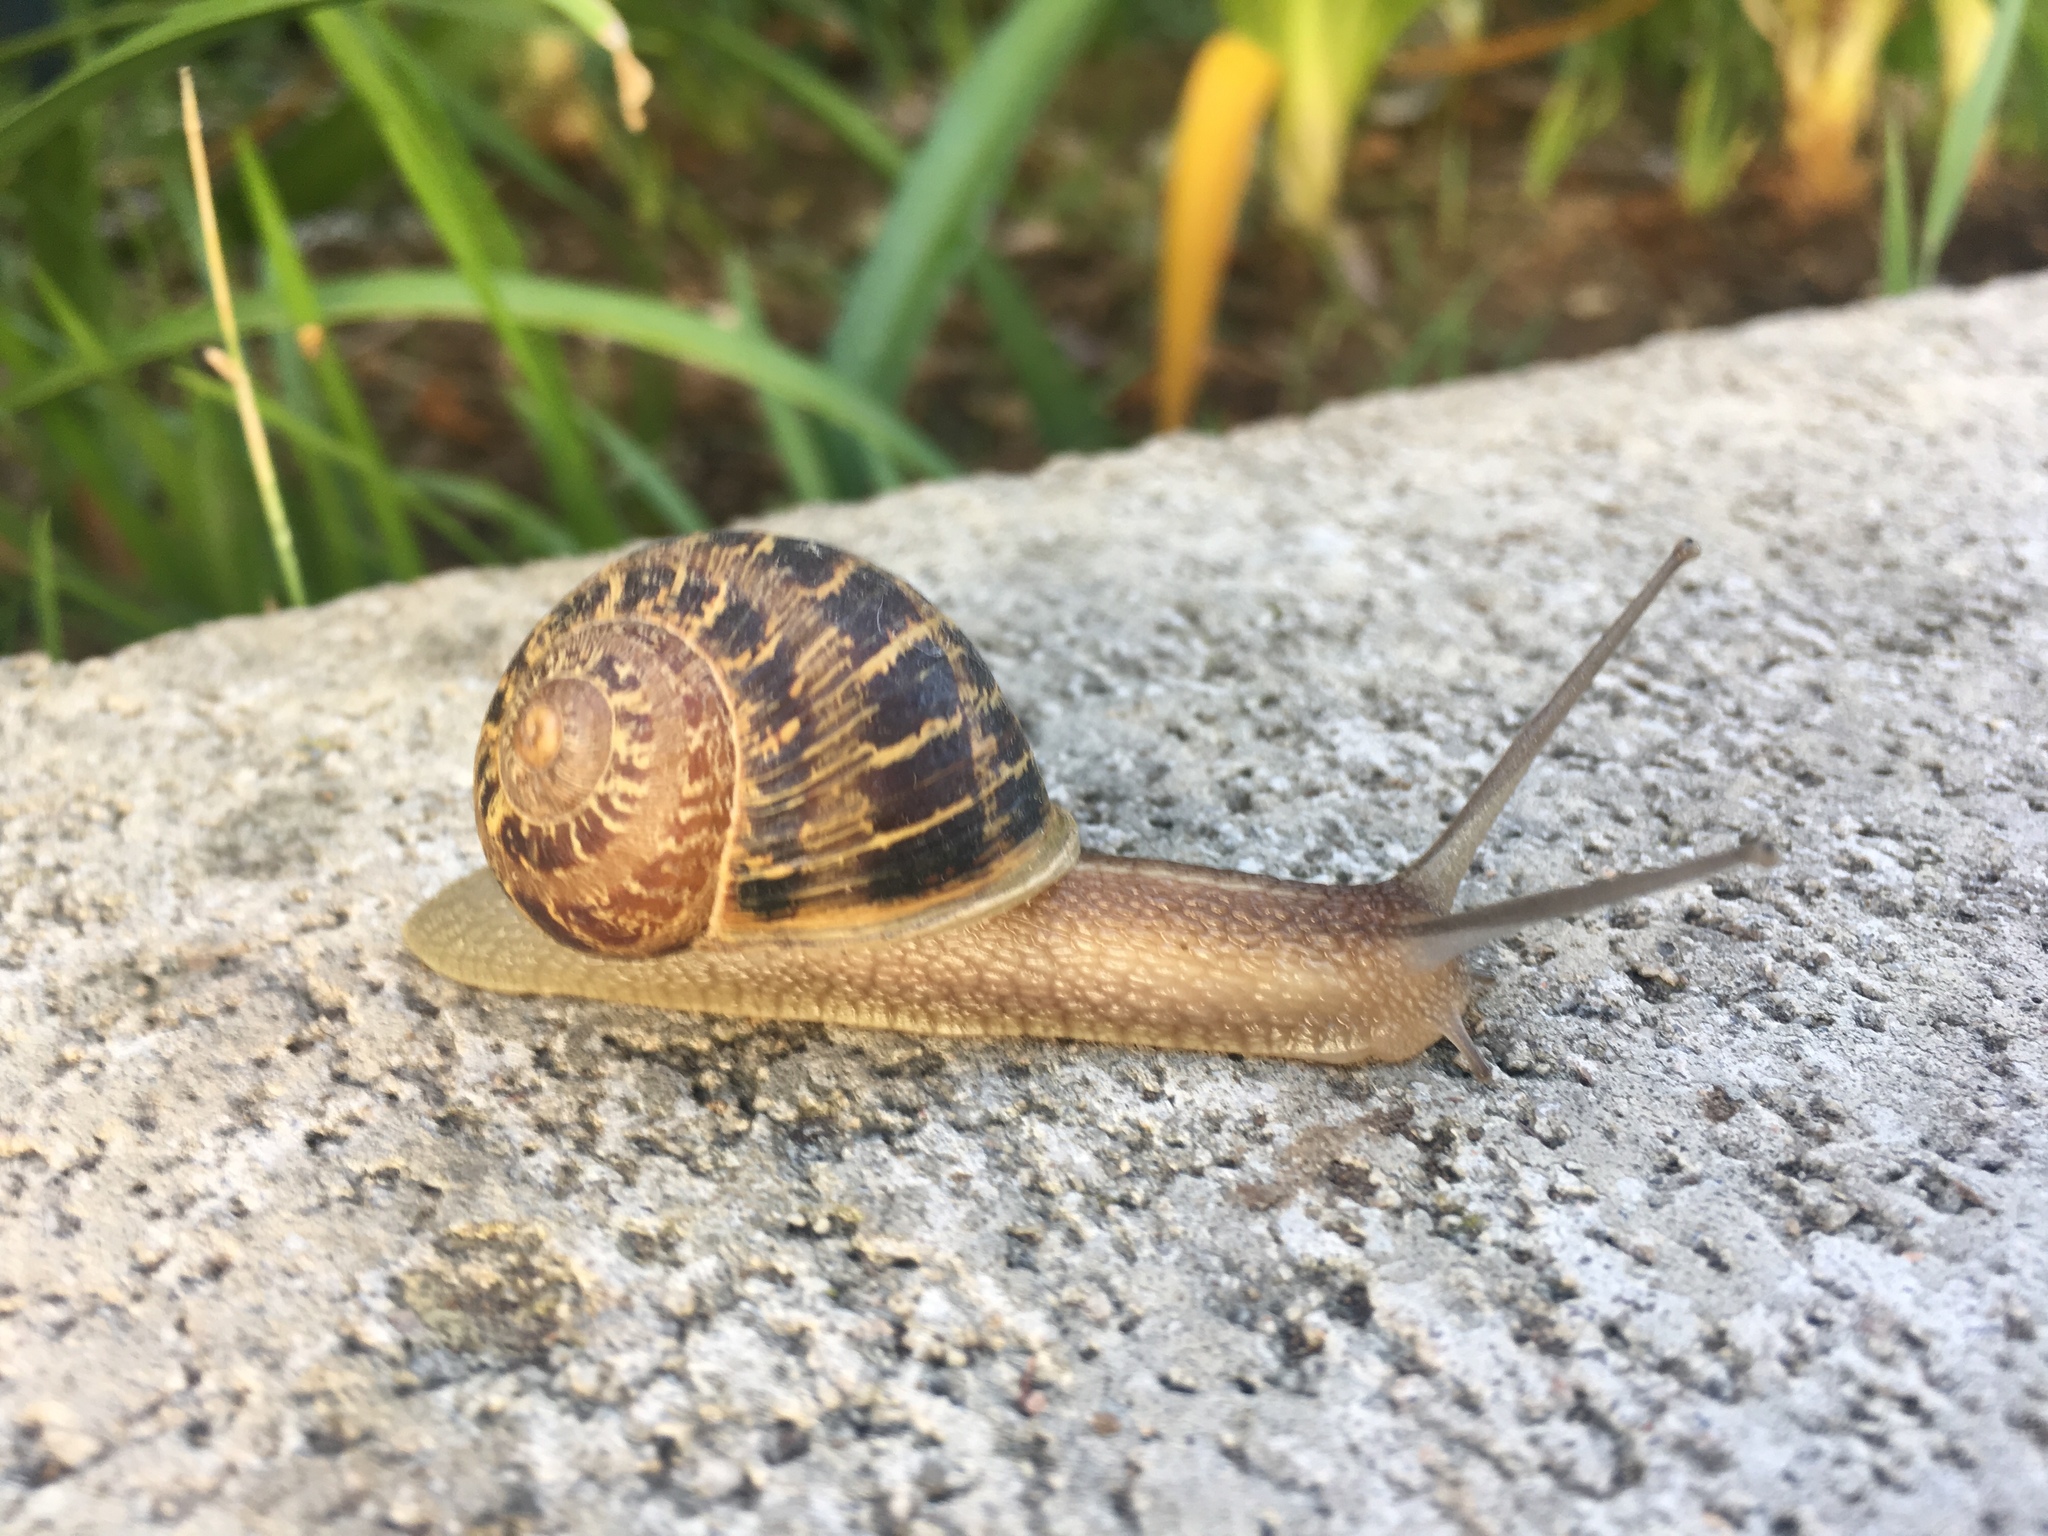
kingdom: Animalia
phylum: Mollusca
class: Gastropoda
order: Stylommatophora
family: Helicidae
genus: Cornu
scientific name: Cornu aspersum
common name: Brown garden snail
